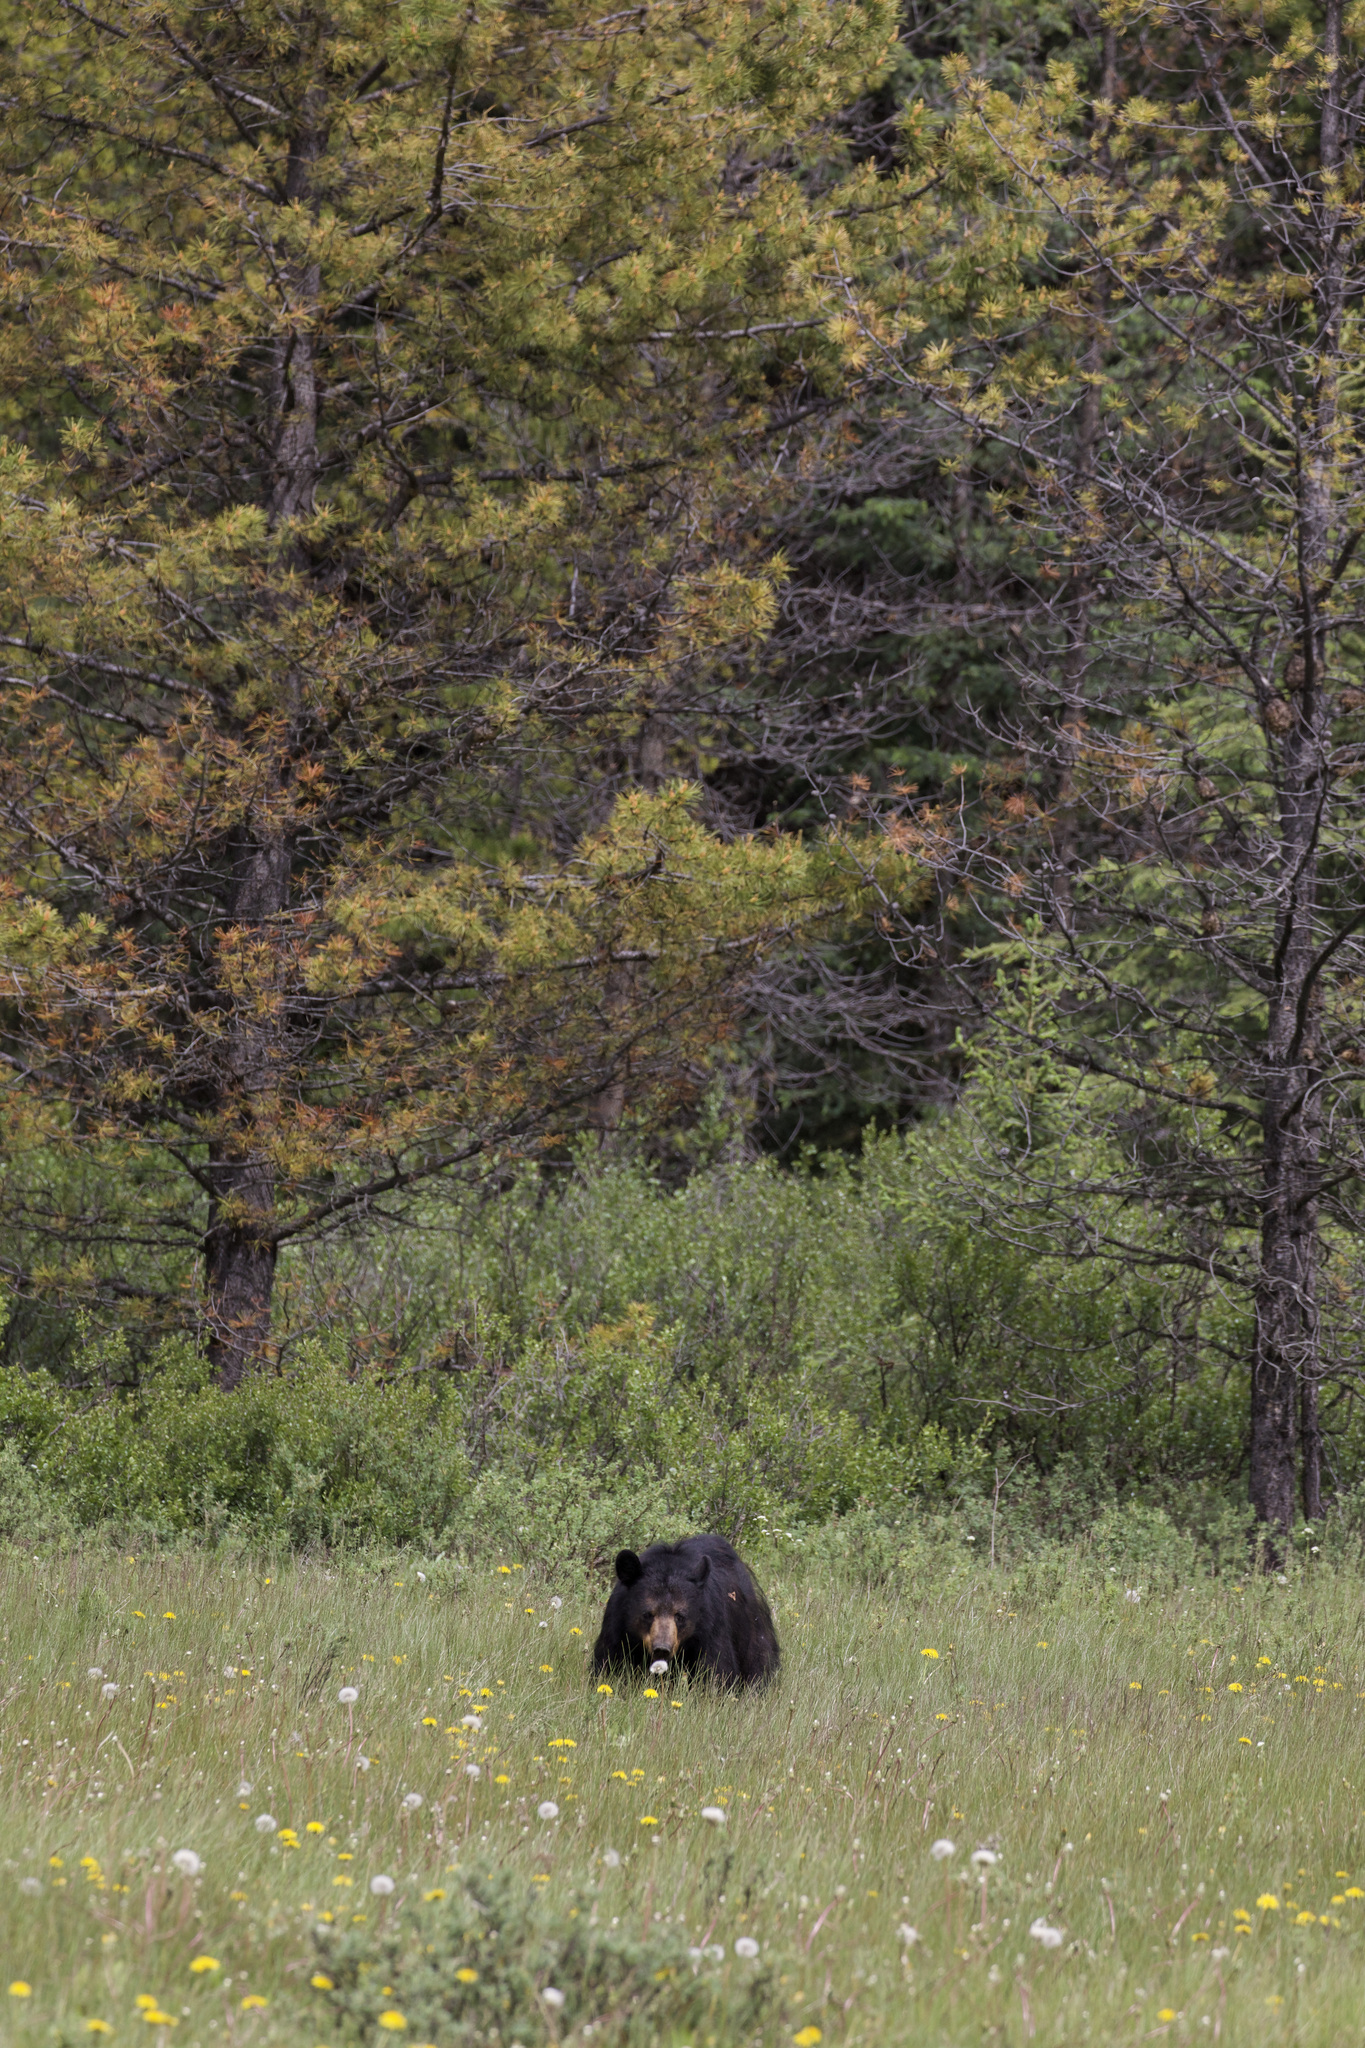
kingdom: Animalia
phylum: Chordata
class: Mammalia
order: Carnivora
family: Ursidae
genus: Ursus
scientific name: Ursus americanus
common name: American black bear
